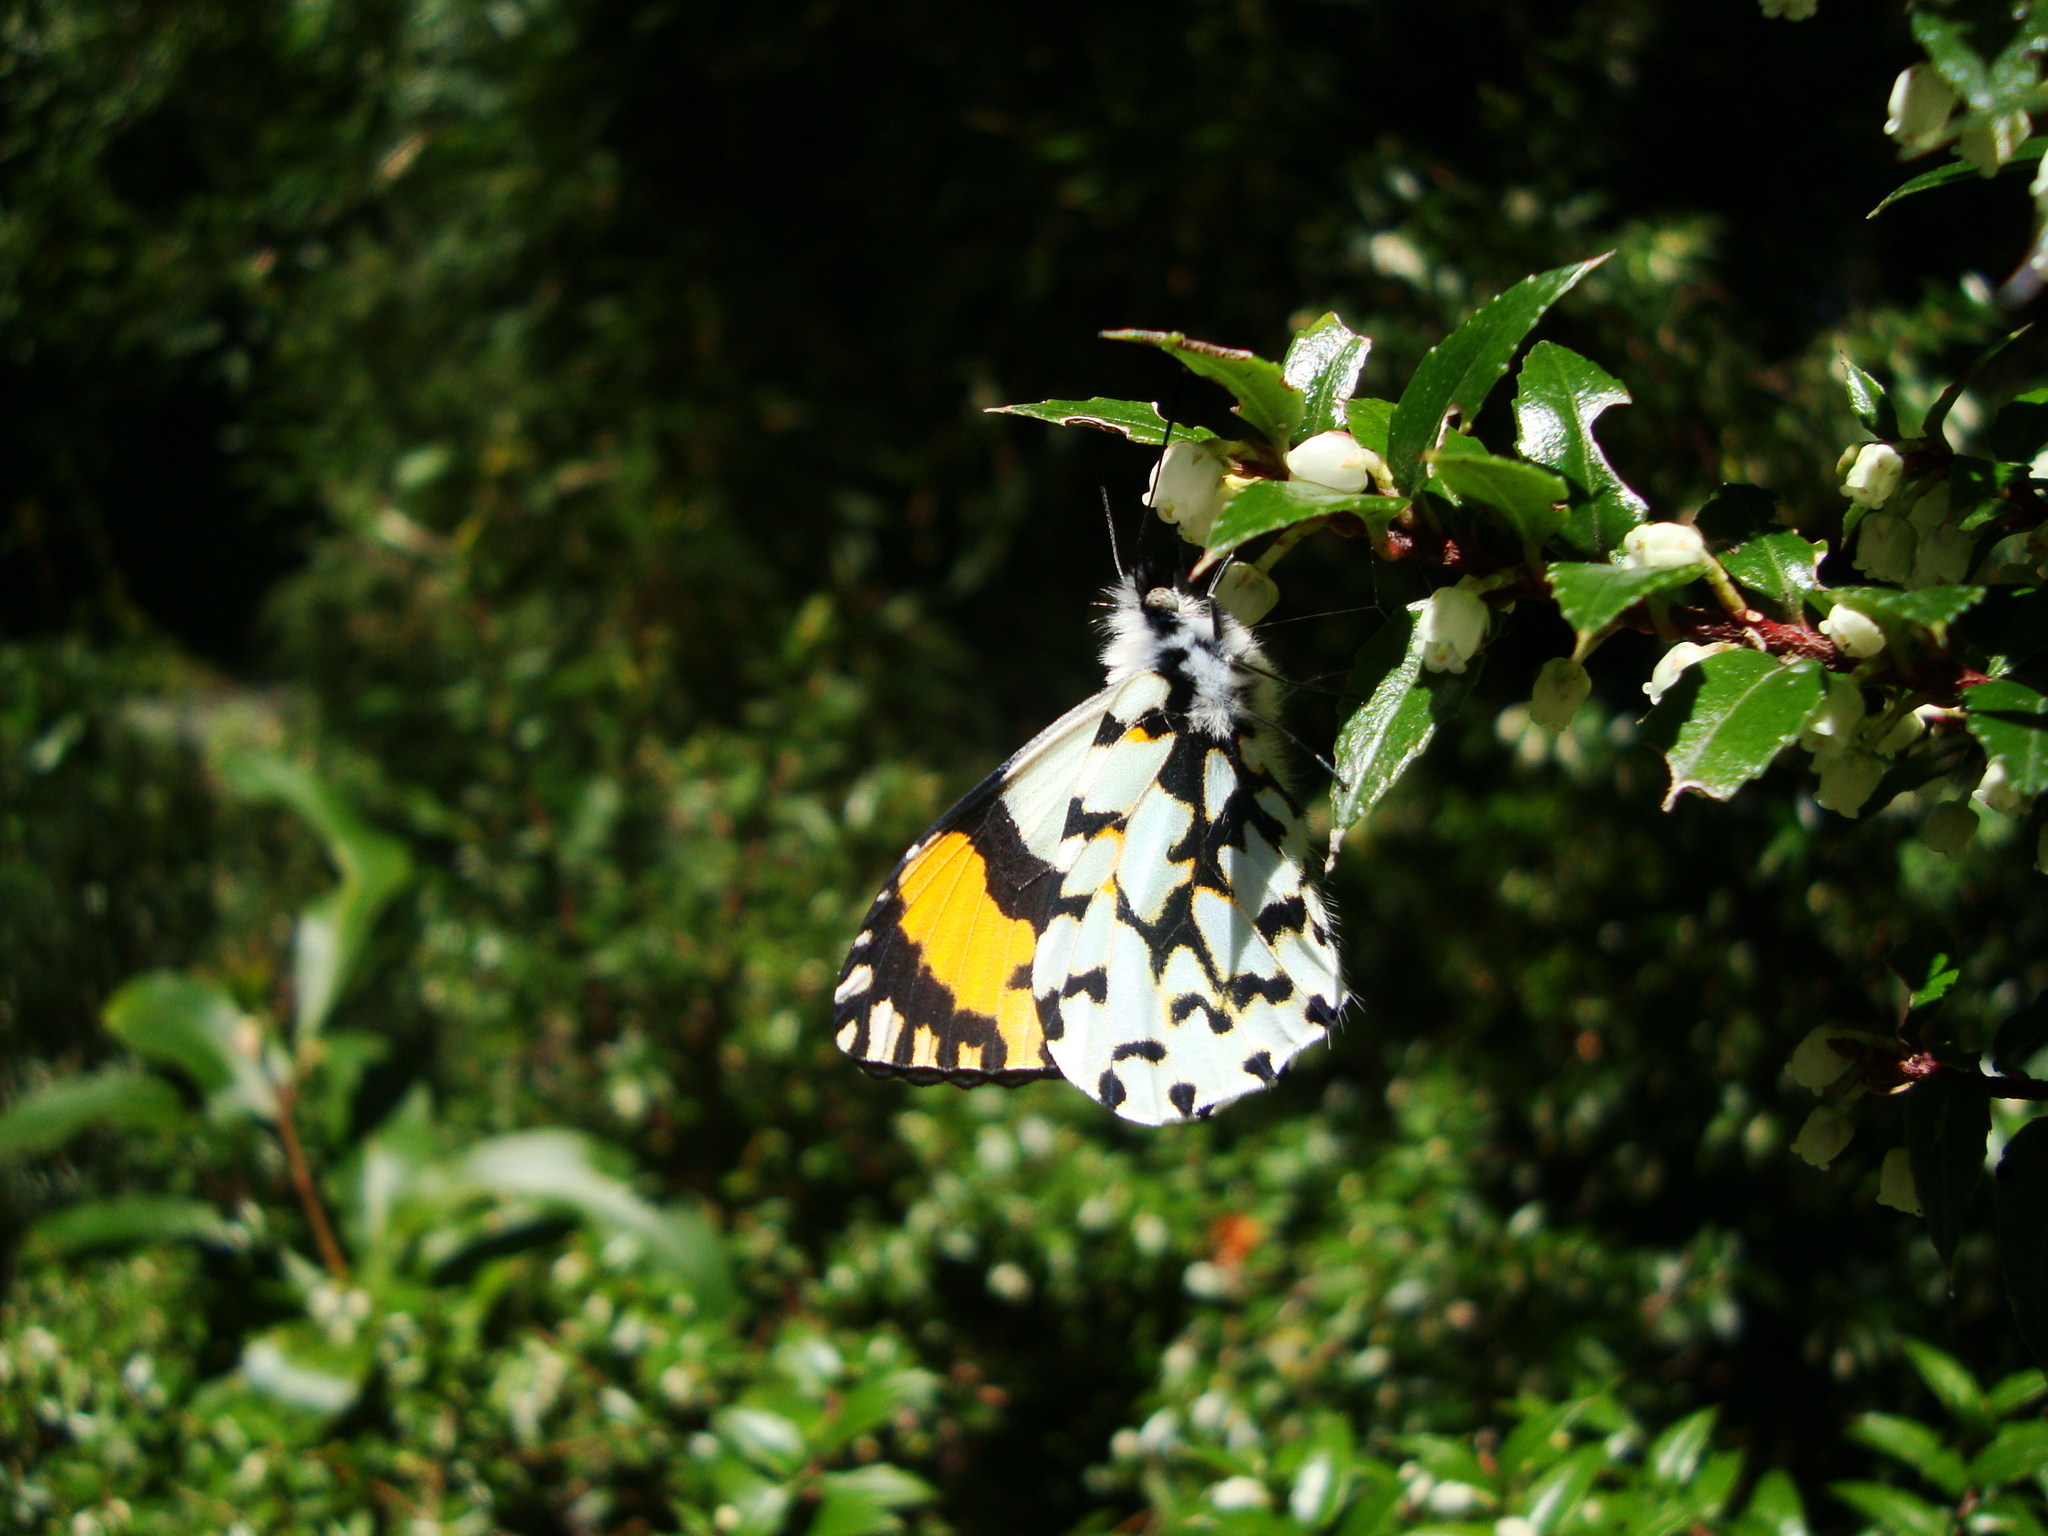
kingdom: Animalia
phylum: Arthropoda
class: Insecta
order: Lepidoptera
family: Pieridae
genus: Eroessa
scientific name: Eroessa chiliensis
